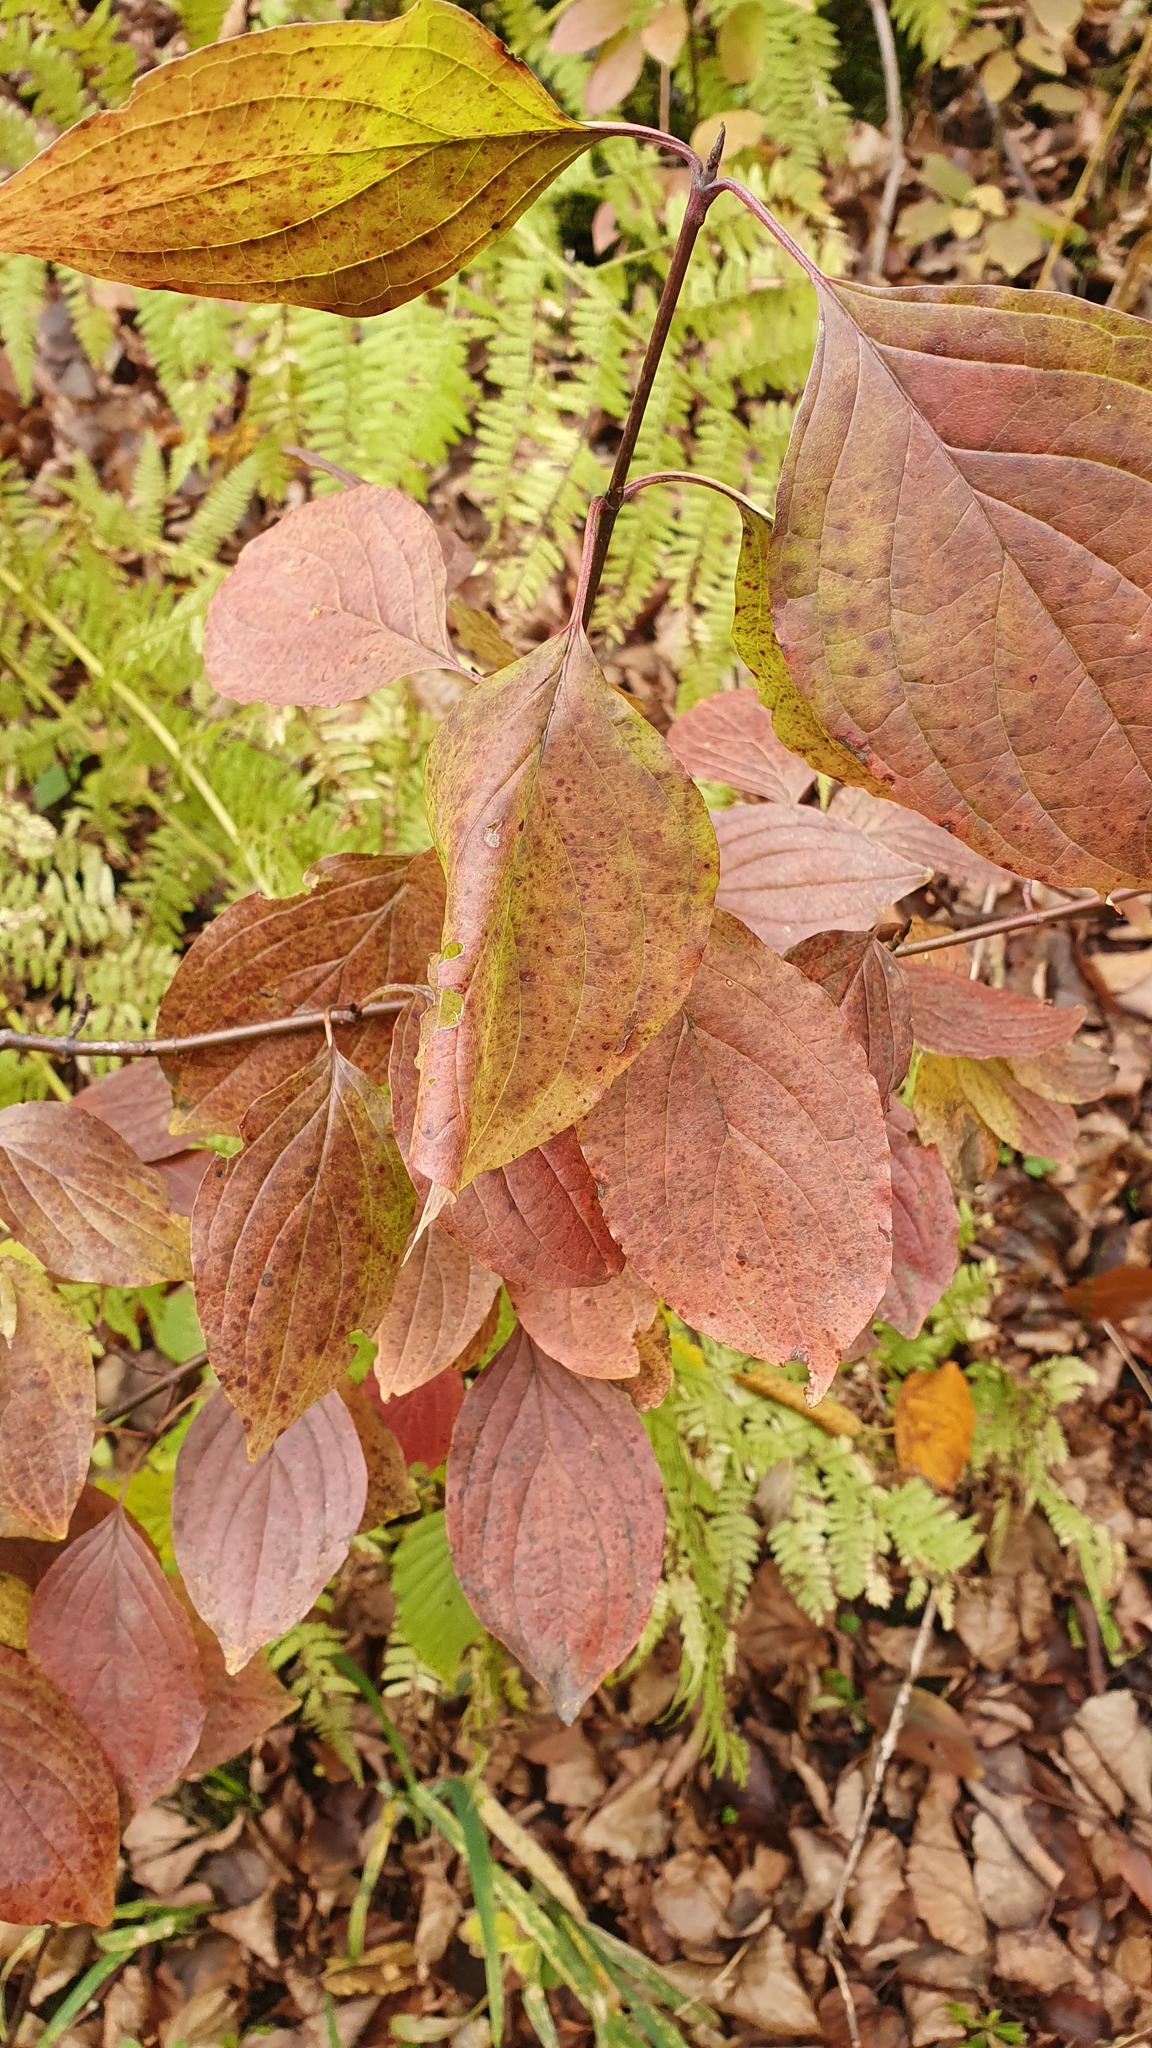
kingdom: Plantae
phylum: Tracheophyta
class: Magnoliopsida
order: Cornales
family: Cornaceae
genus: Cornus
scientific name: Cornus sanguinea
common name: Dogwood
